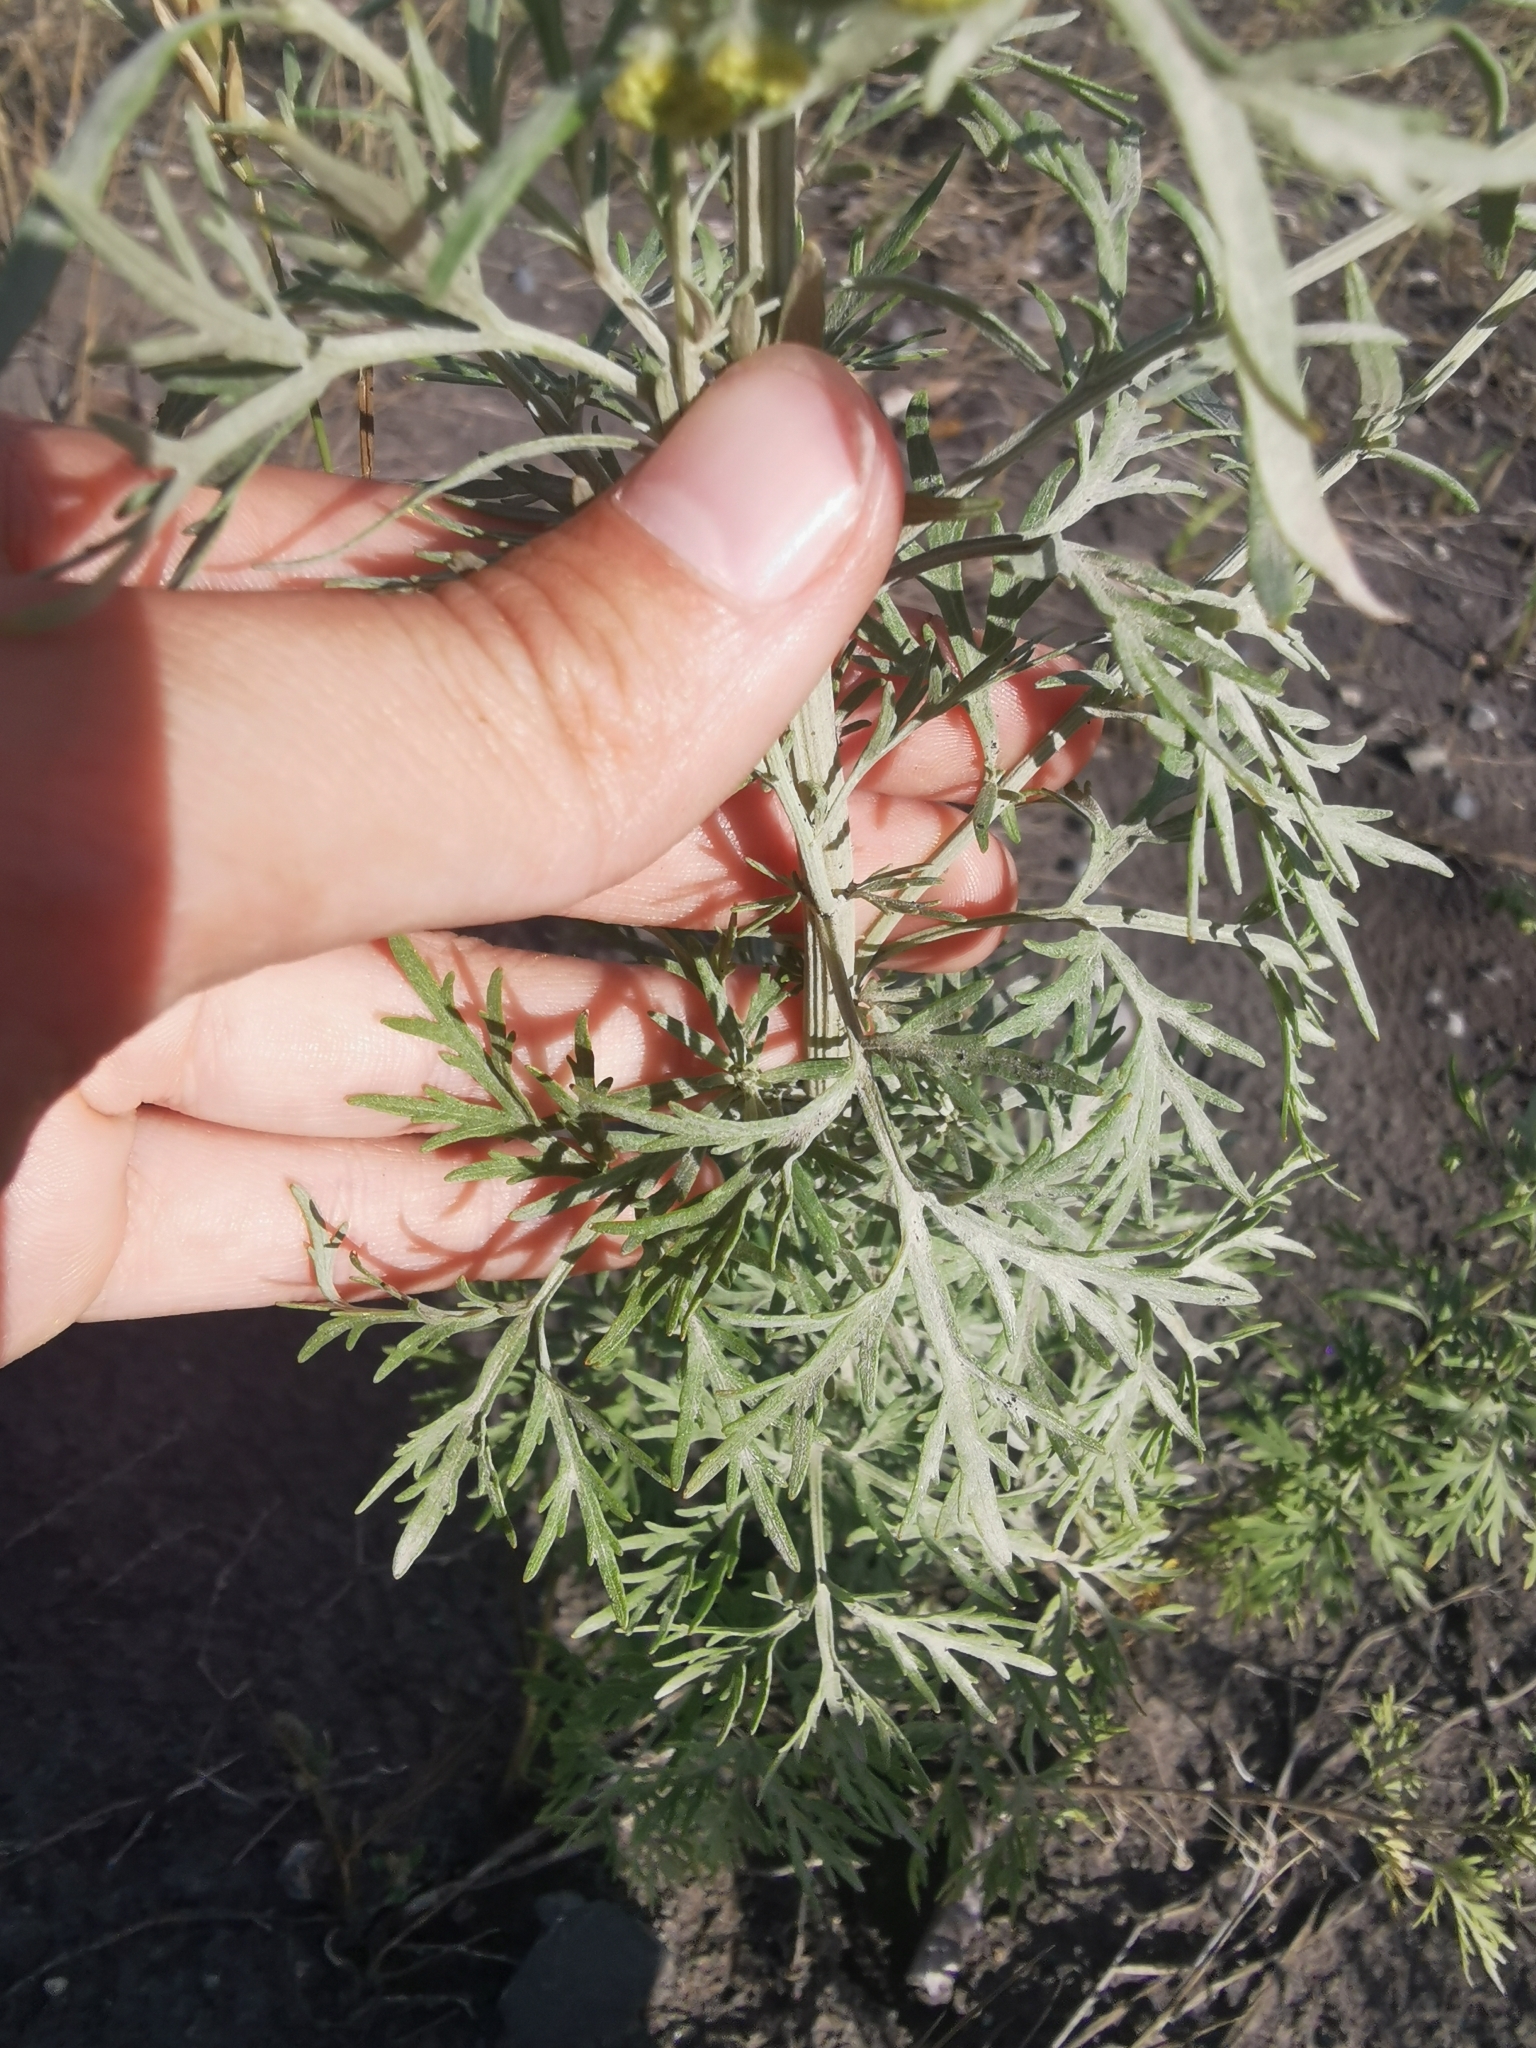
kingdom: Plantae
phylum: Tracheophyta
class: Magnoliopsida
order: Asterales
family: Asteraceae
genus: Artemisia
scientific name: Artemisia sieversiana
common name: Sieversian wormwood
